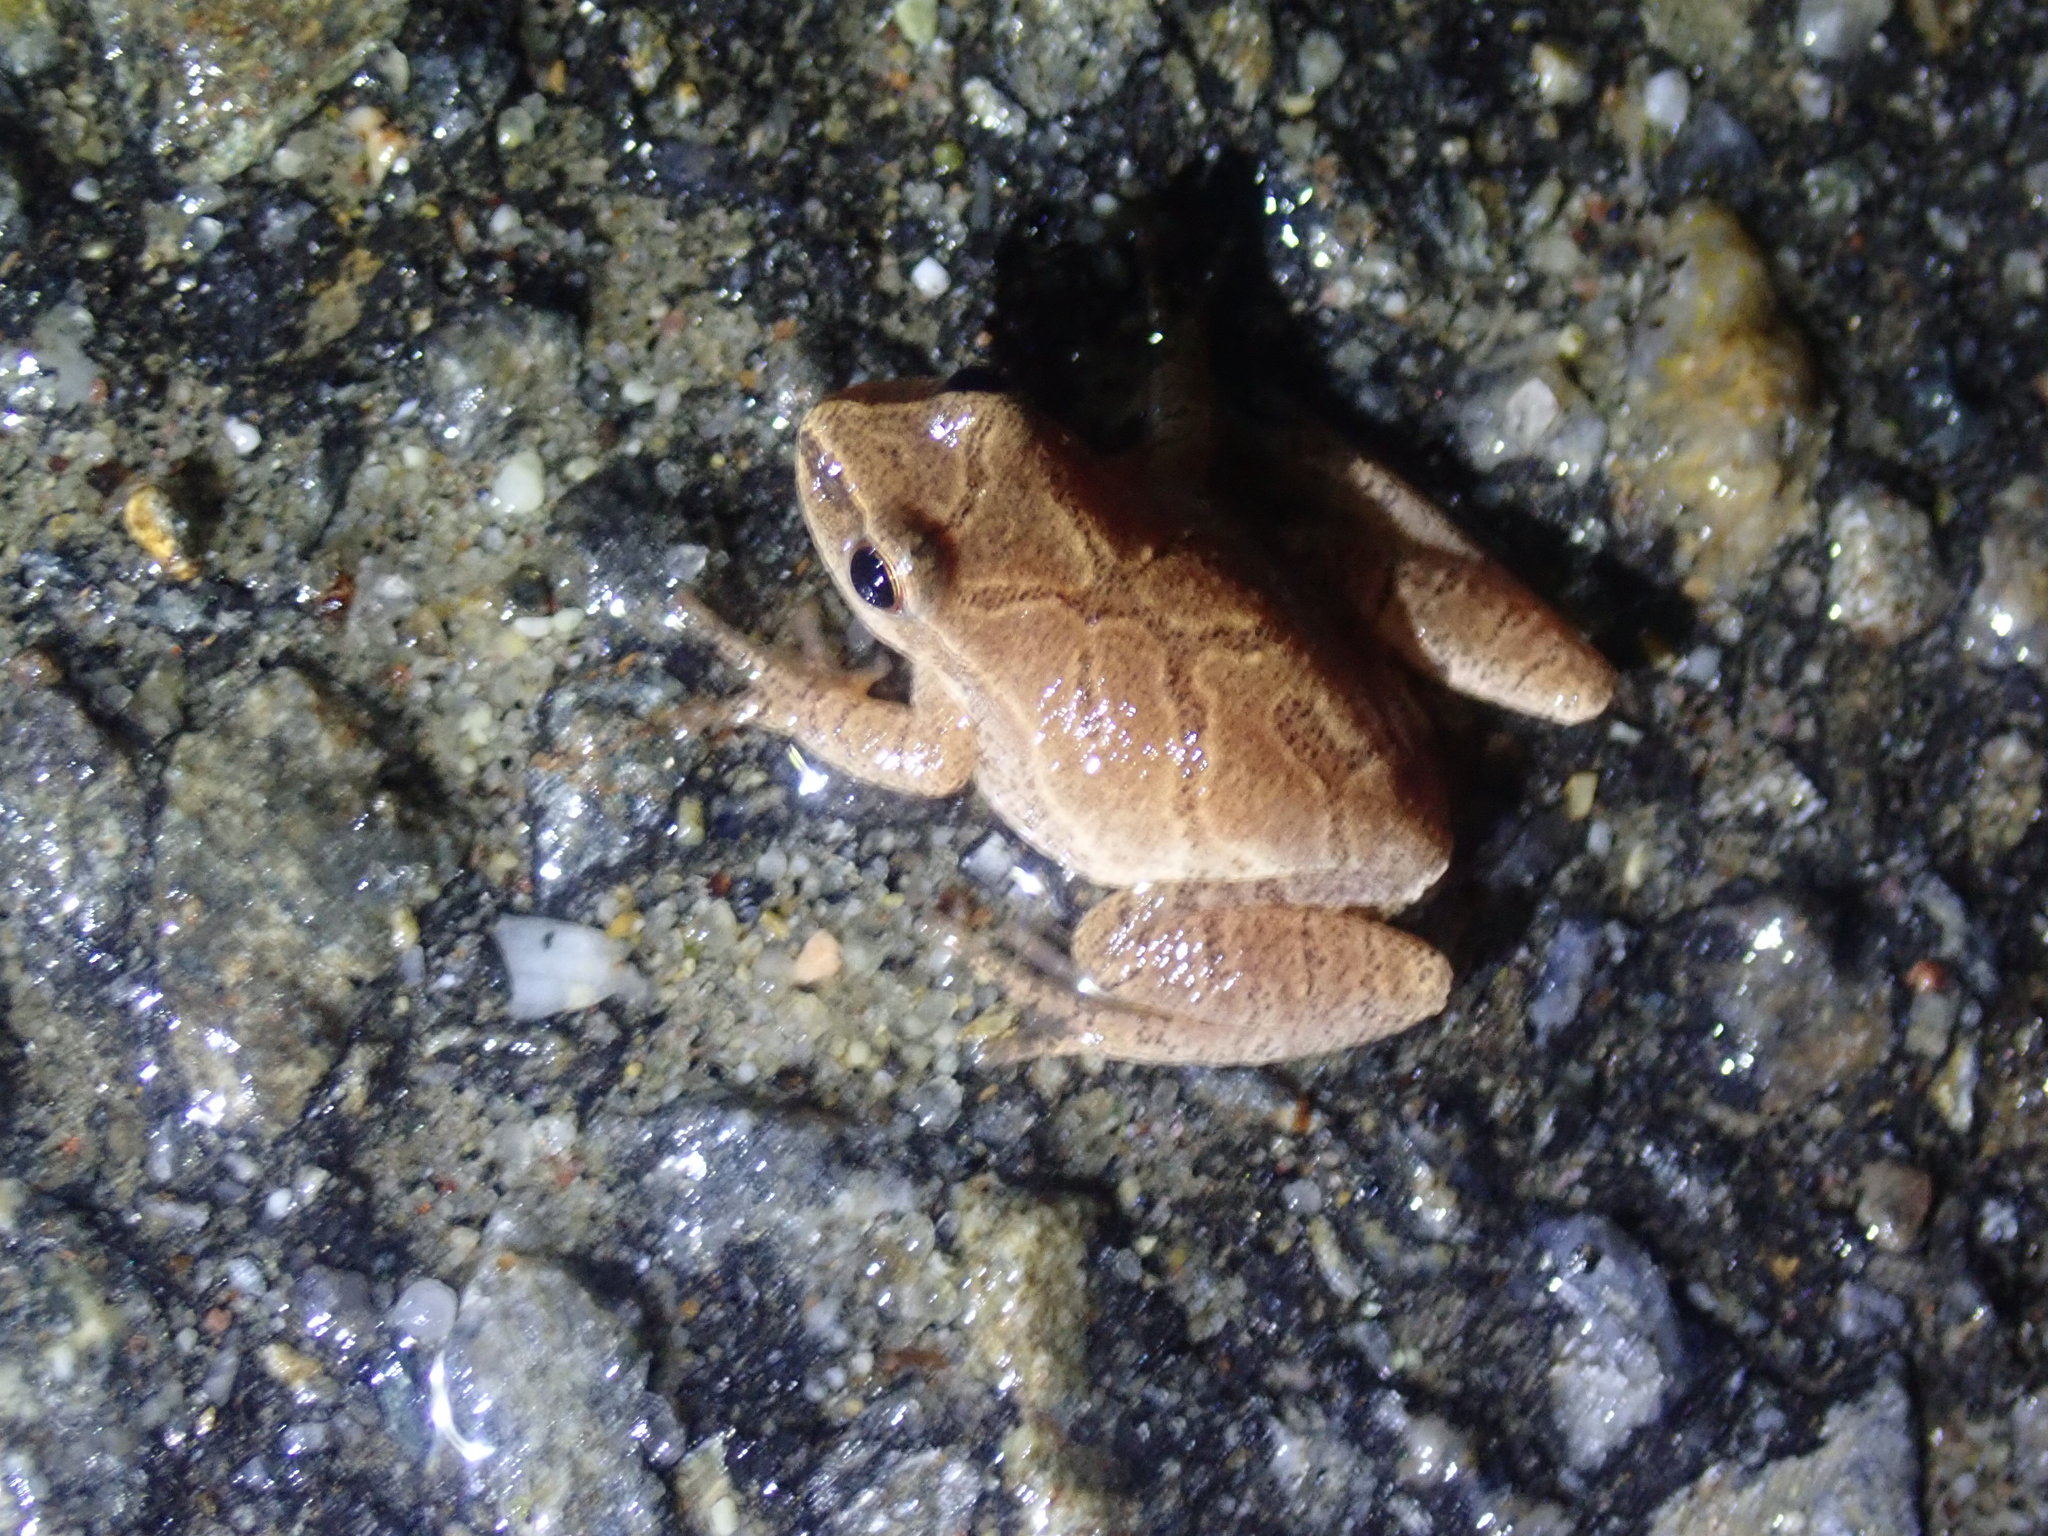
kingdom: Animalia
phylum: Chordata
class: Amphibia
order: Anura
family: Hylidae
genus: Pseudacris
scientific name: Pseudacris crucifer
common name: Spring peeper
